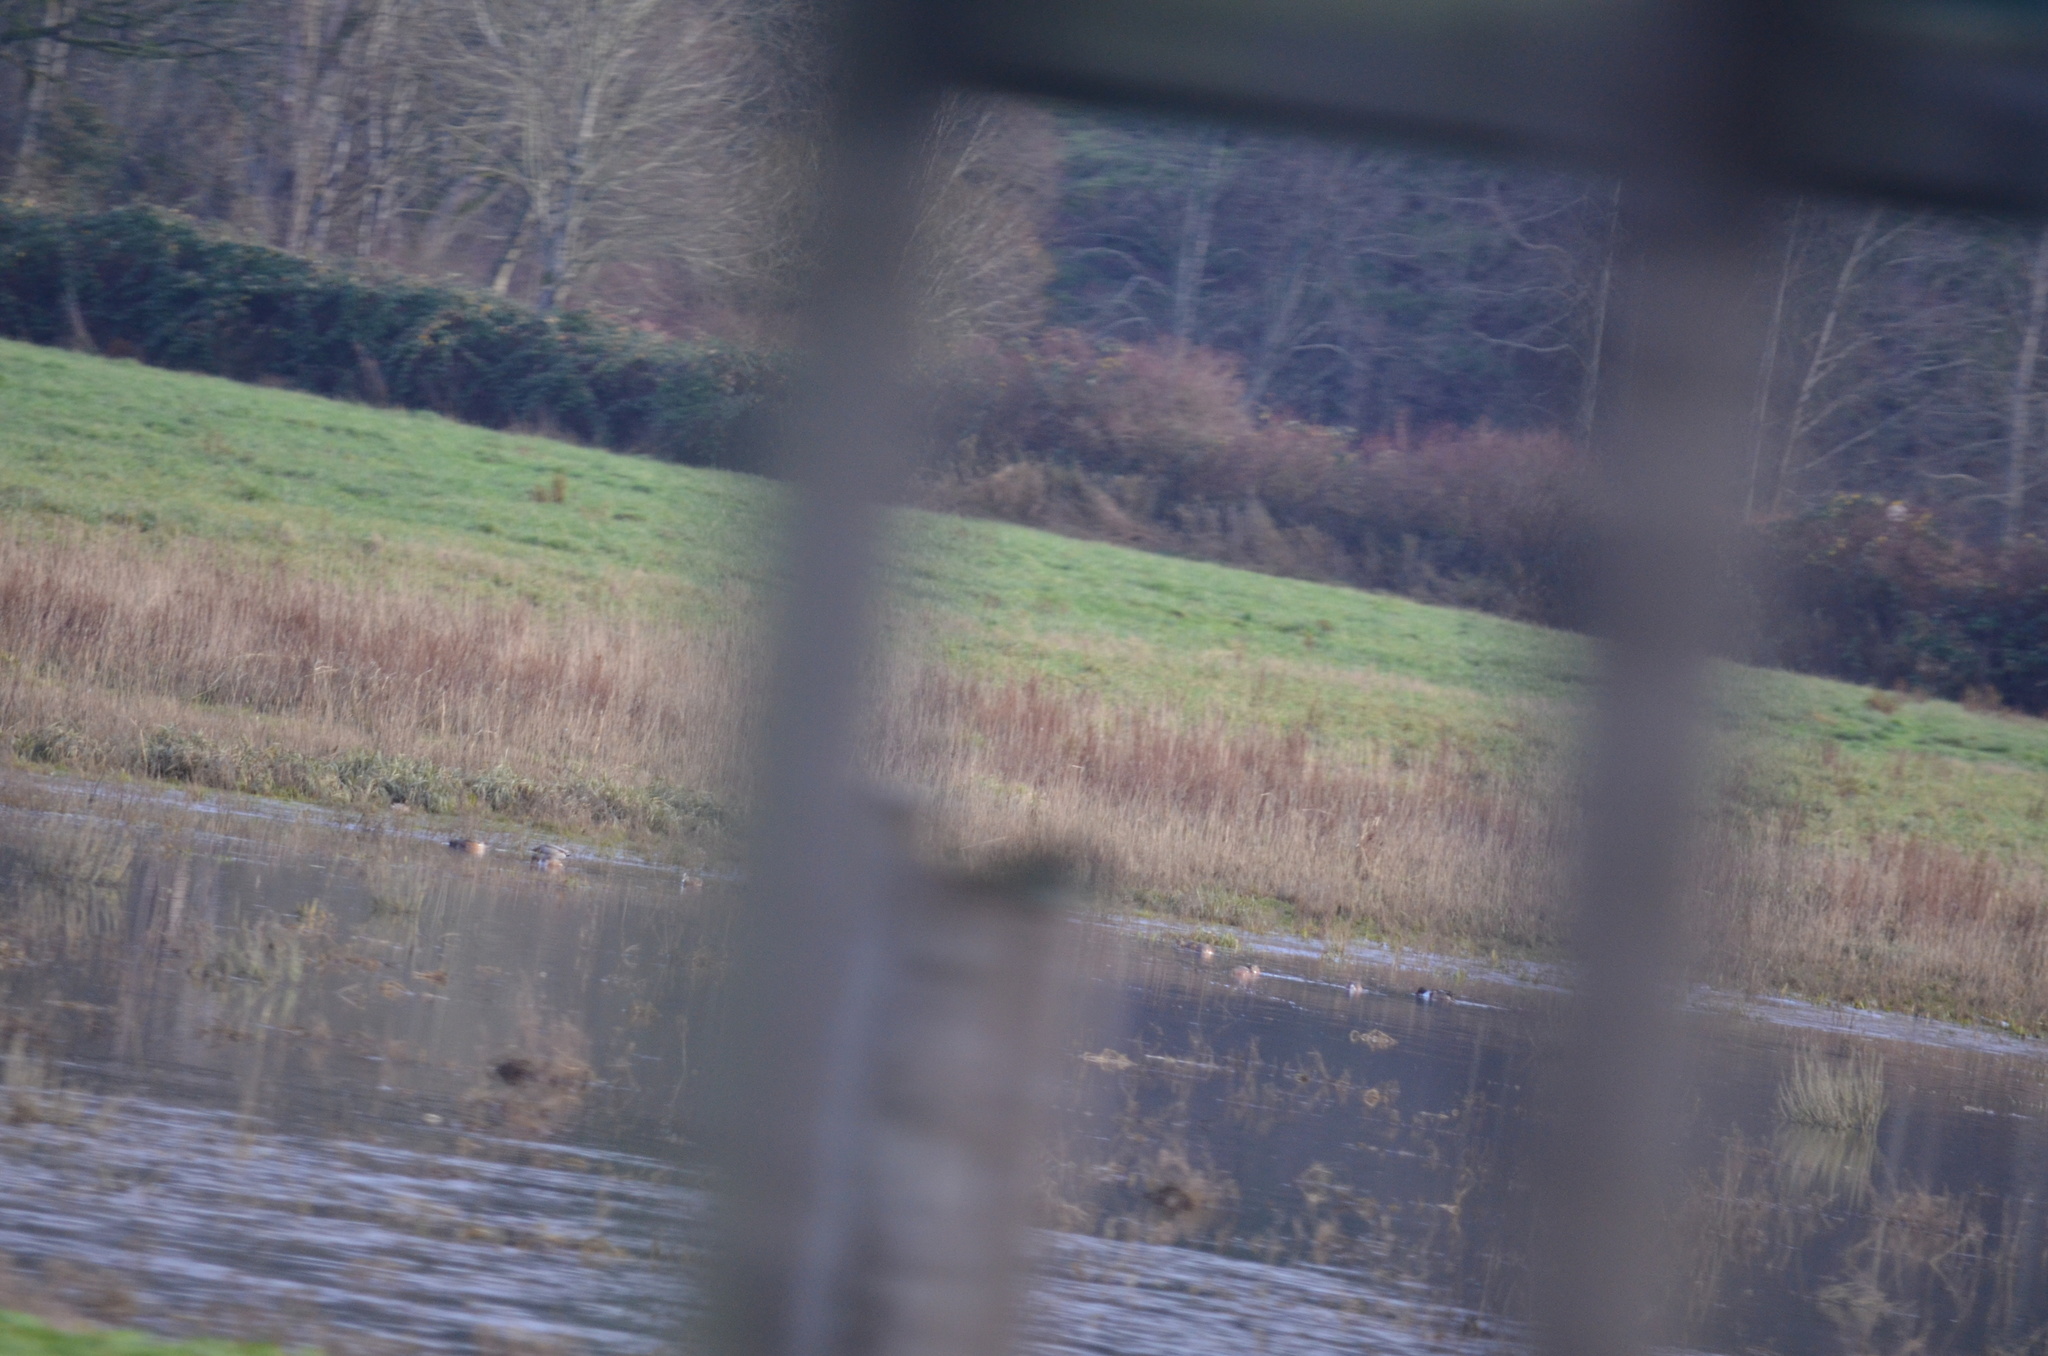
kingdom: Animalia
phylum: Chordata
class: Aves
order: Anseriformes
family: Anatidae
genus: Mareca
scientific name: Mareca americana
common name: American wigeon
